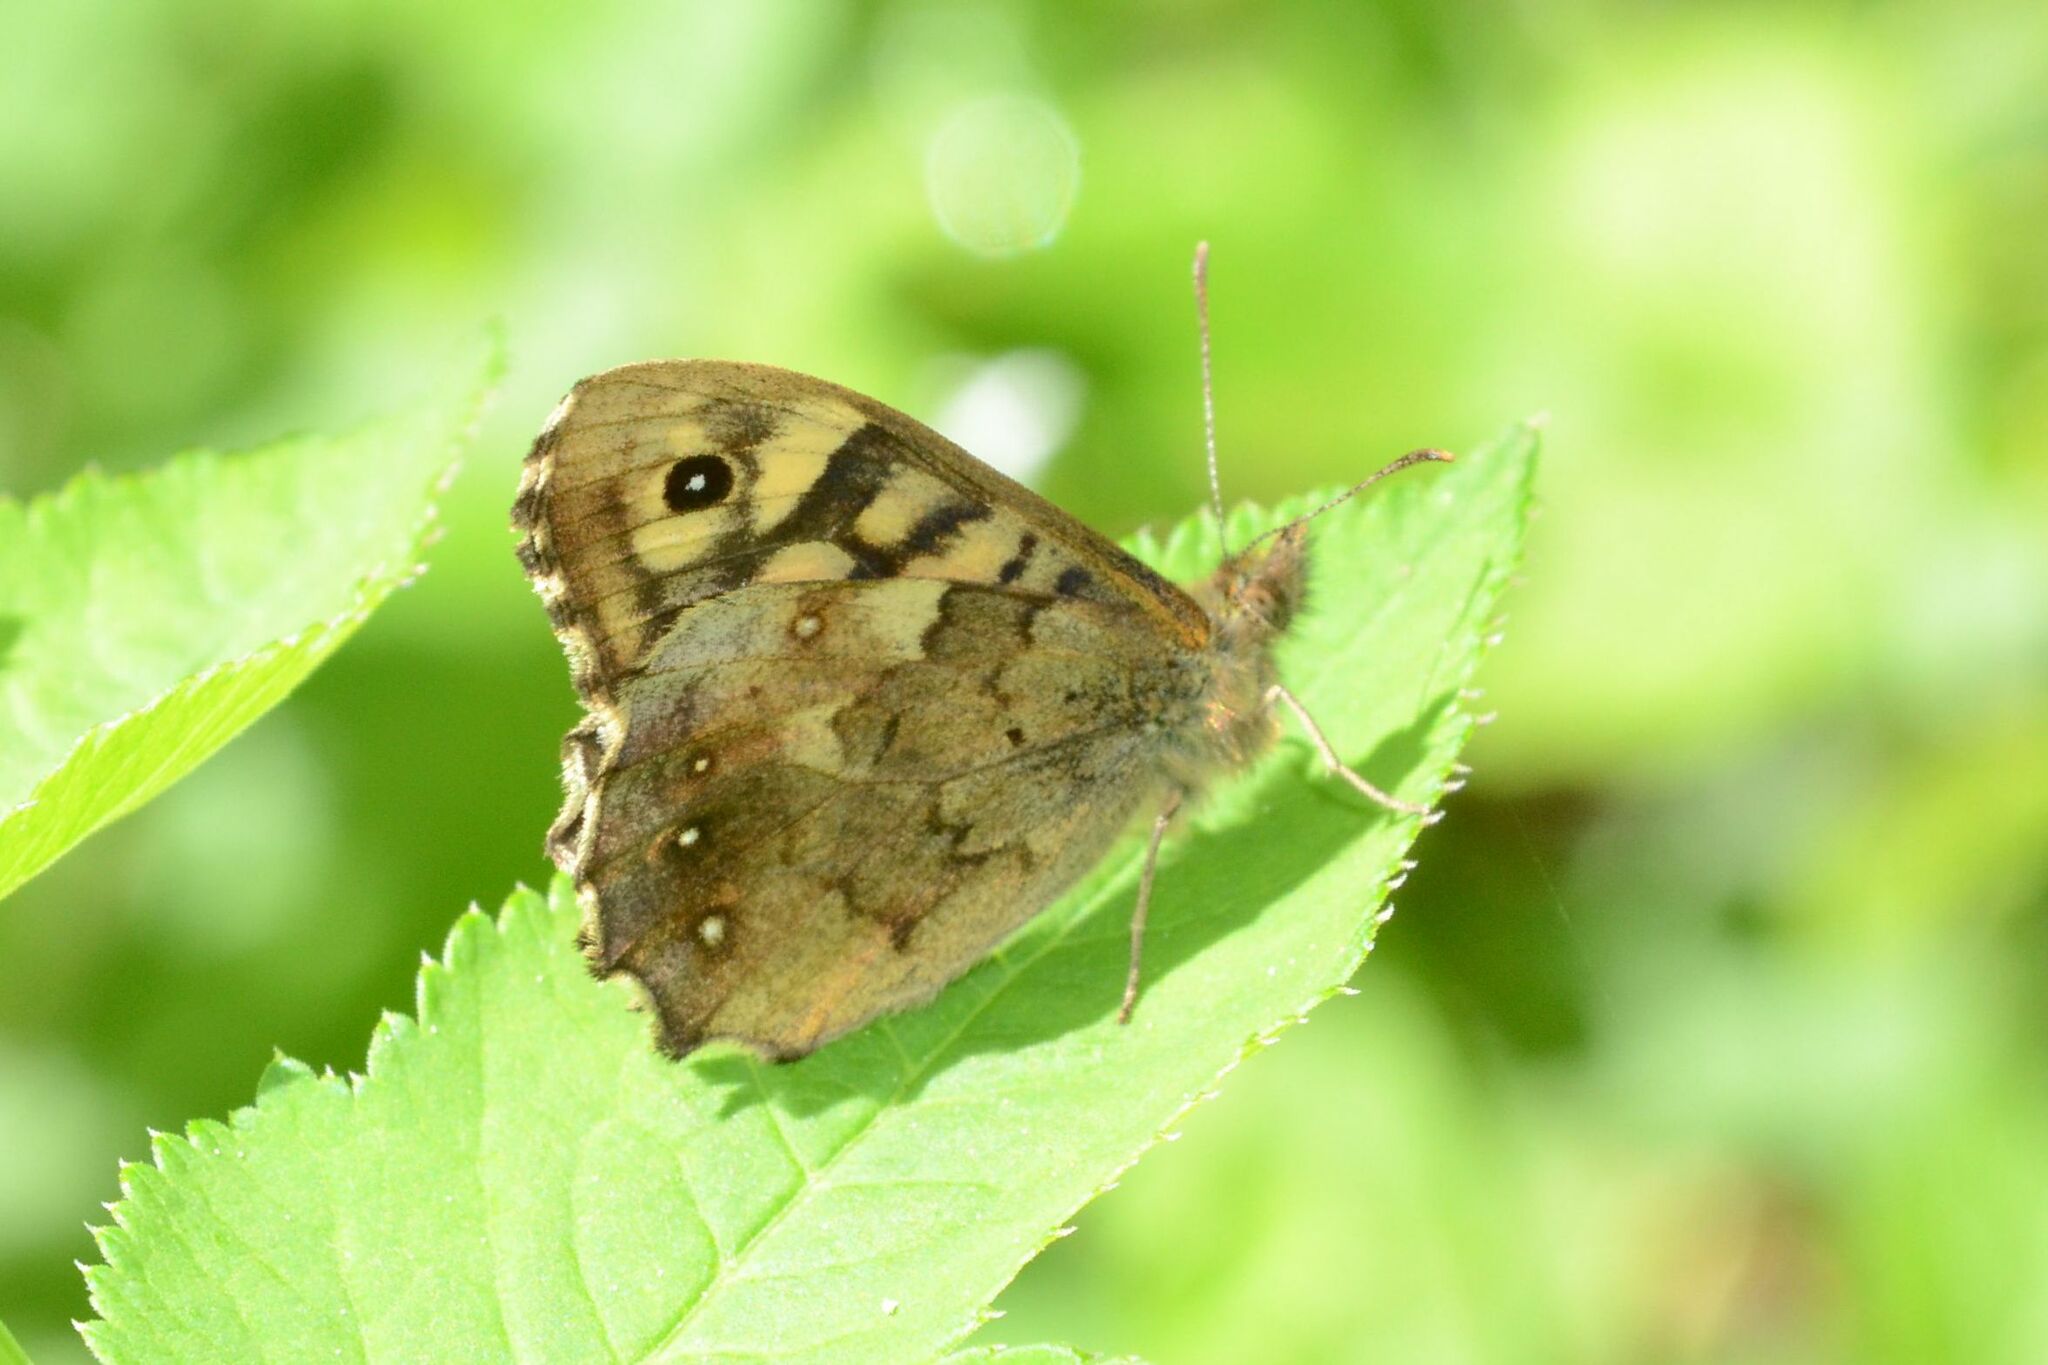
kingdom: Animalia
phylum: Arthropoda
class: Insecta
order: Lepidoptera
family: Nymphalidae
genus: Pararge
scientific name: Pararge aegeria
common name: Speckled wood
